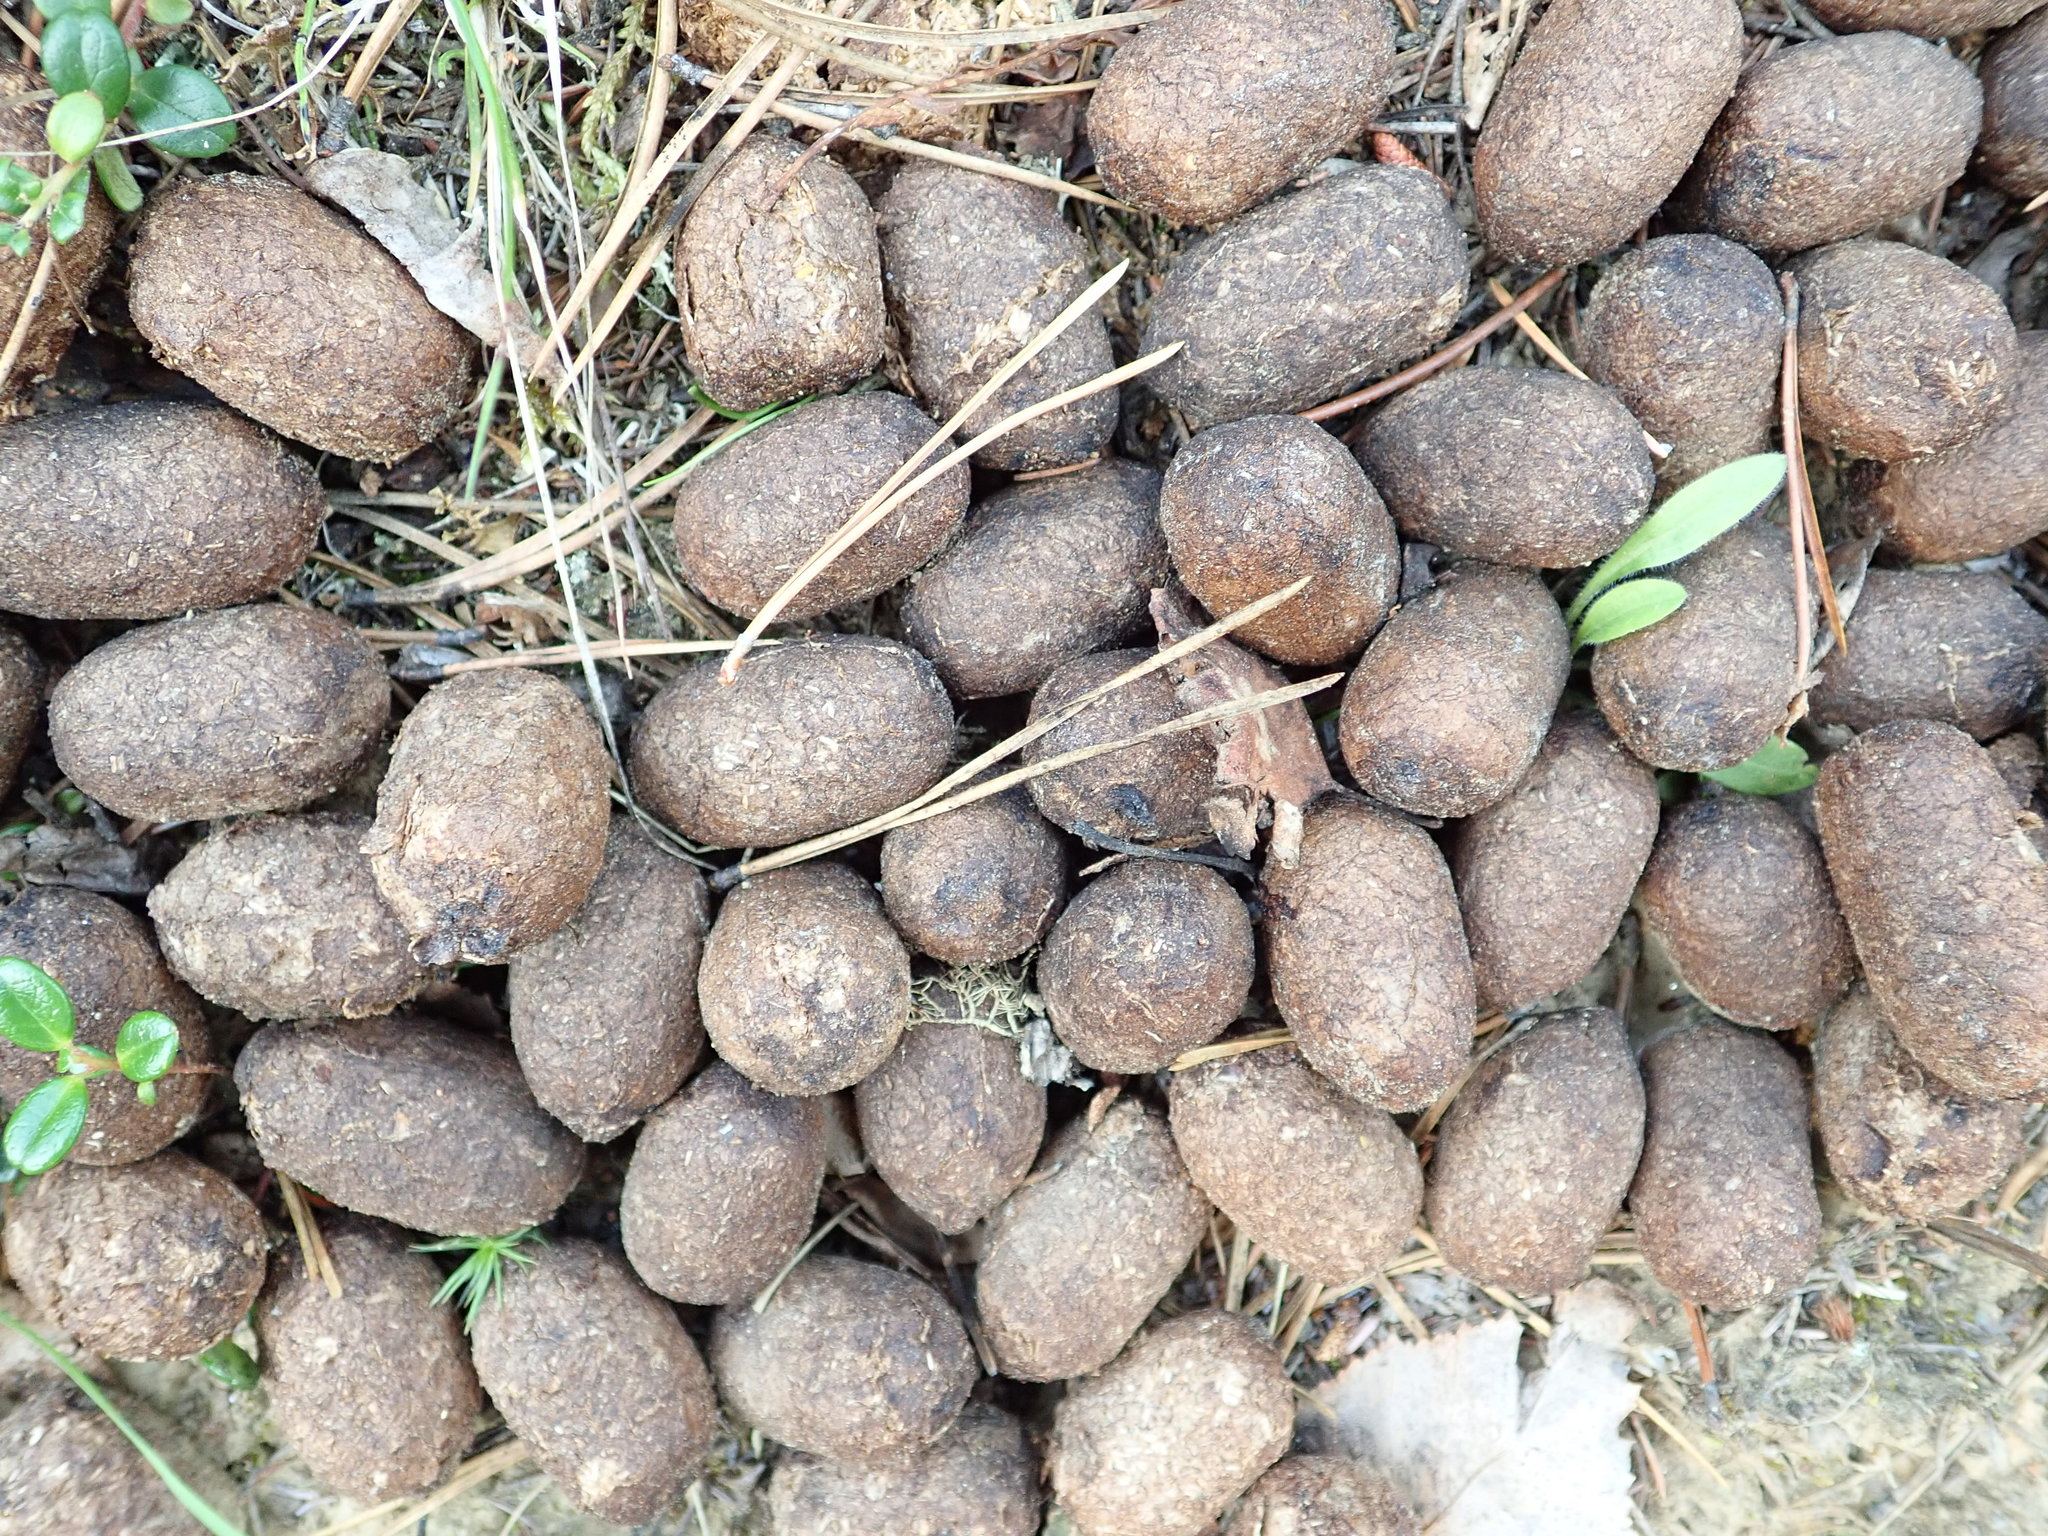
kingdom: Animalia
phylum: Chordata
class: Mammalia
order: Artiodactyla
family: Cervidae
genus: Alces
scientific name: Alces alces
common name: Moose
